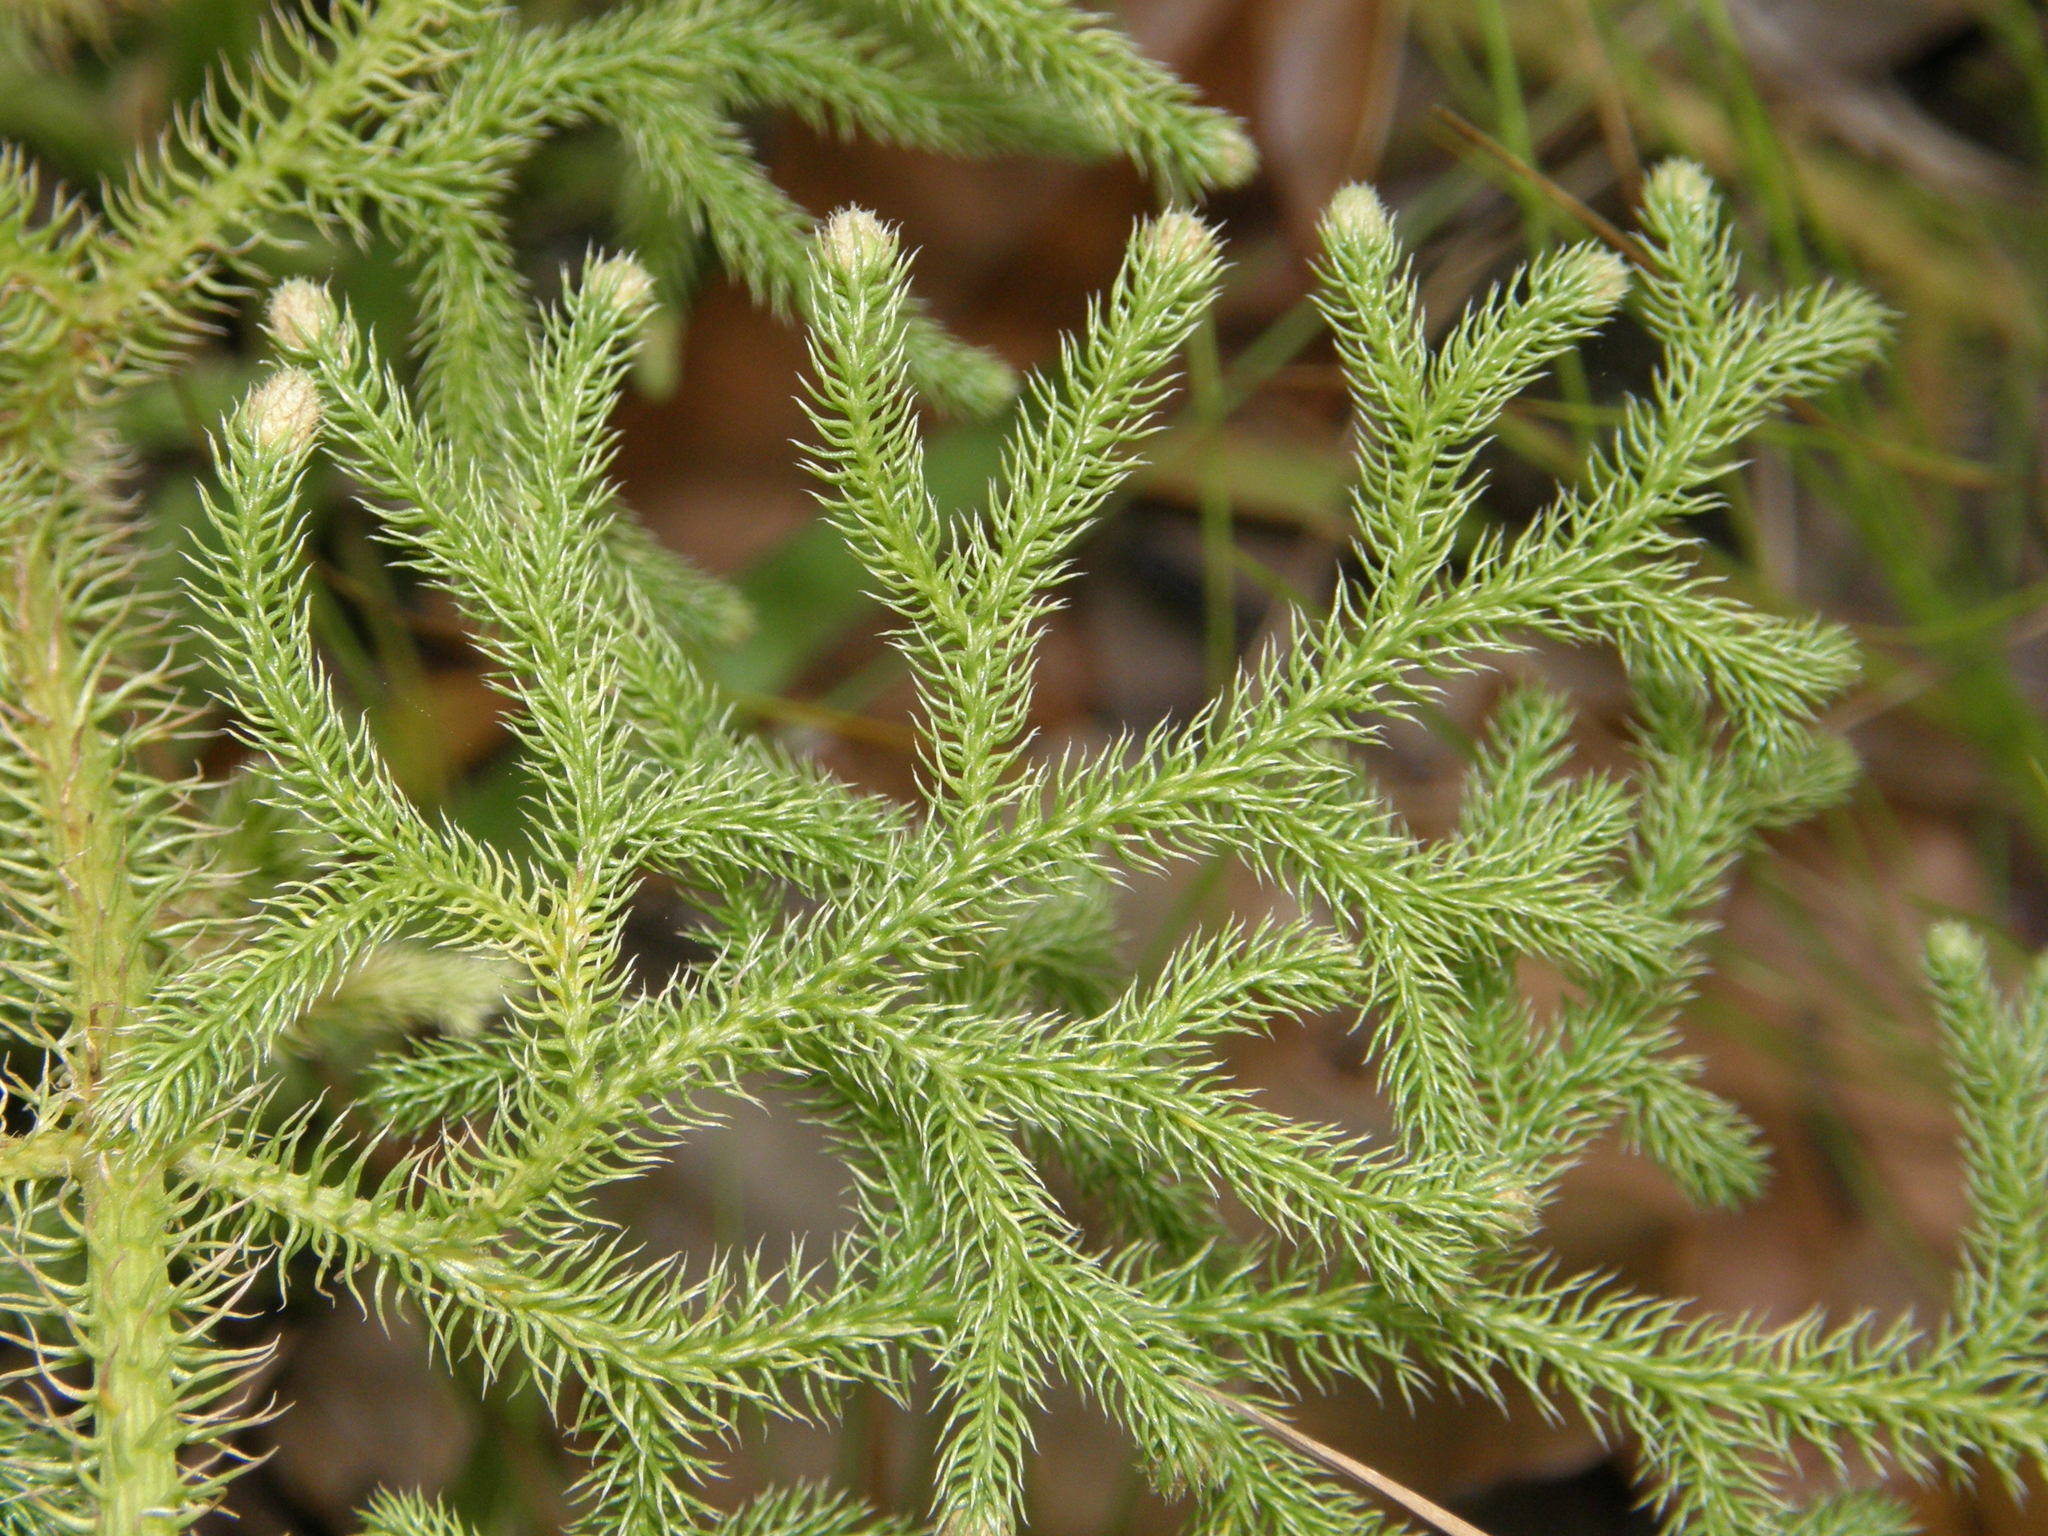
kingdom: Plantae
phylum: Tracheophyta
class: Lycopodiopsida
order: Lycopodiales
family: Lycopodiaceae
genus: Palhinhaea
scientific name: Palhinhaea cernua
